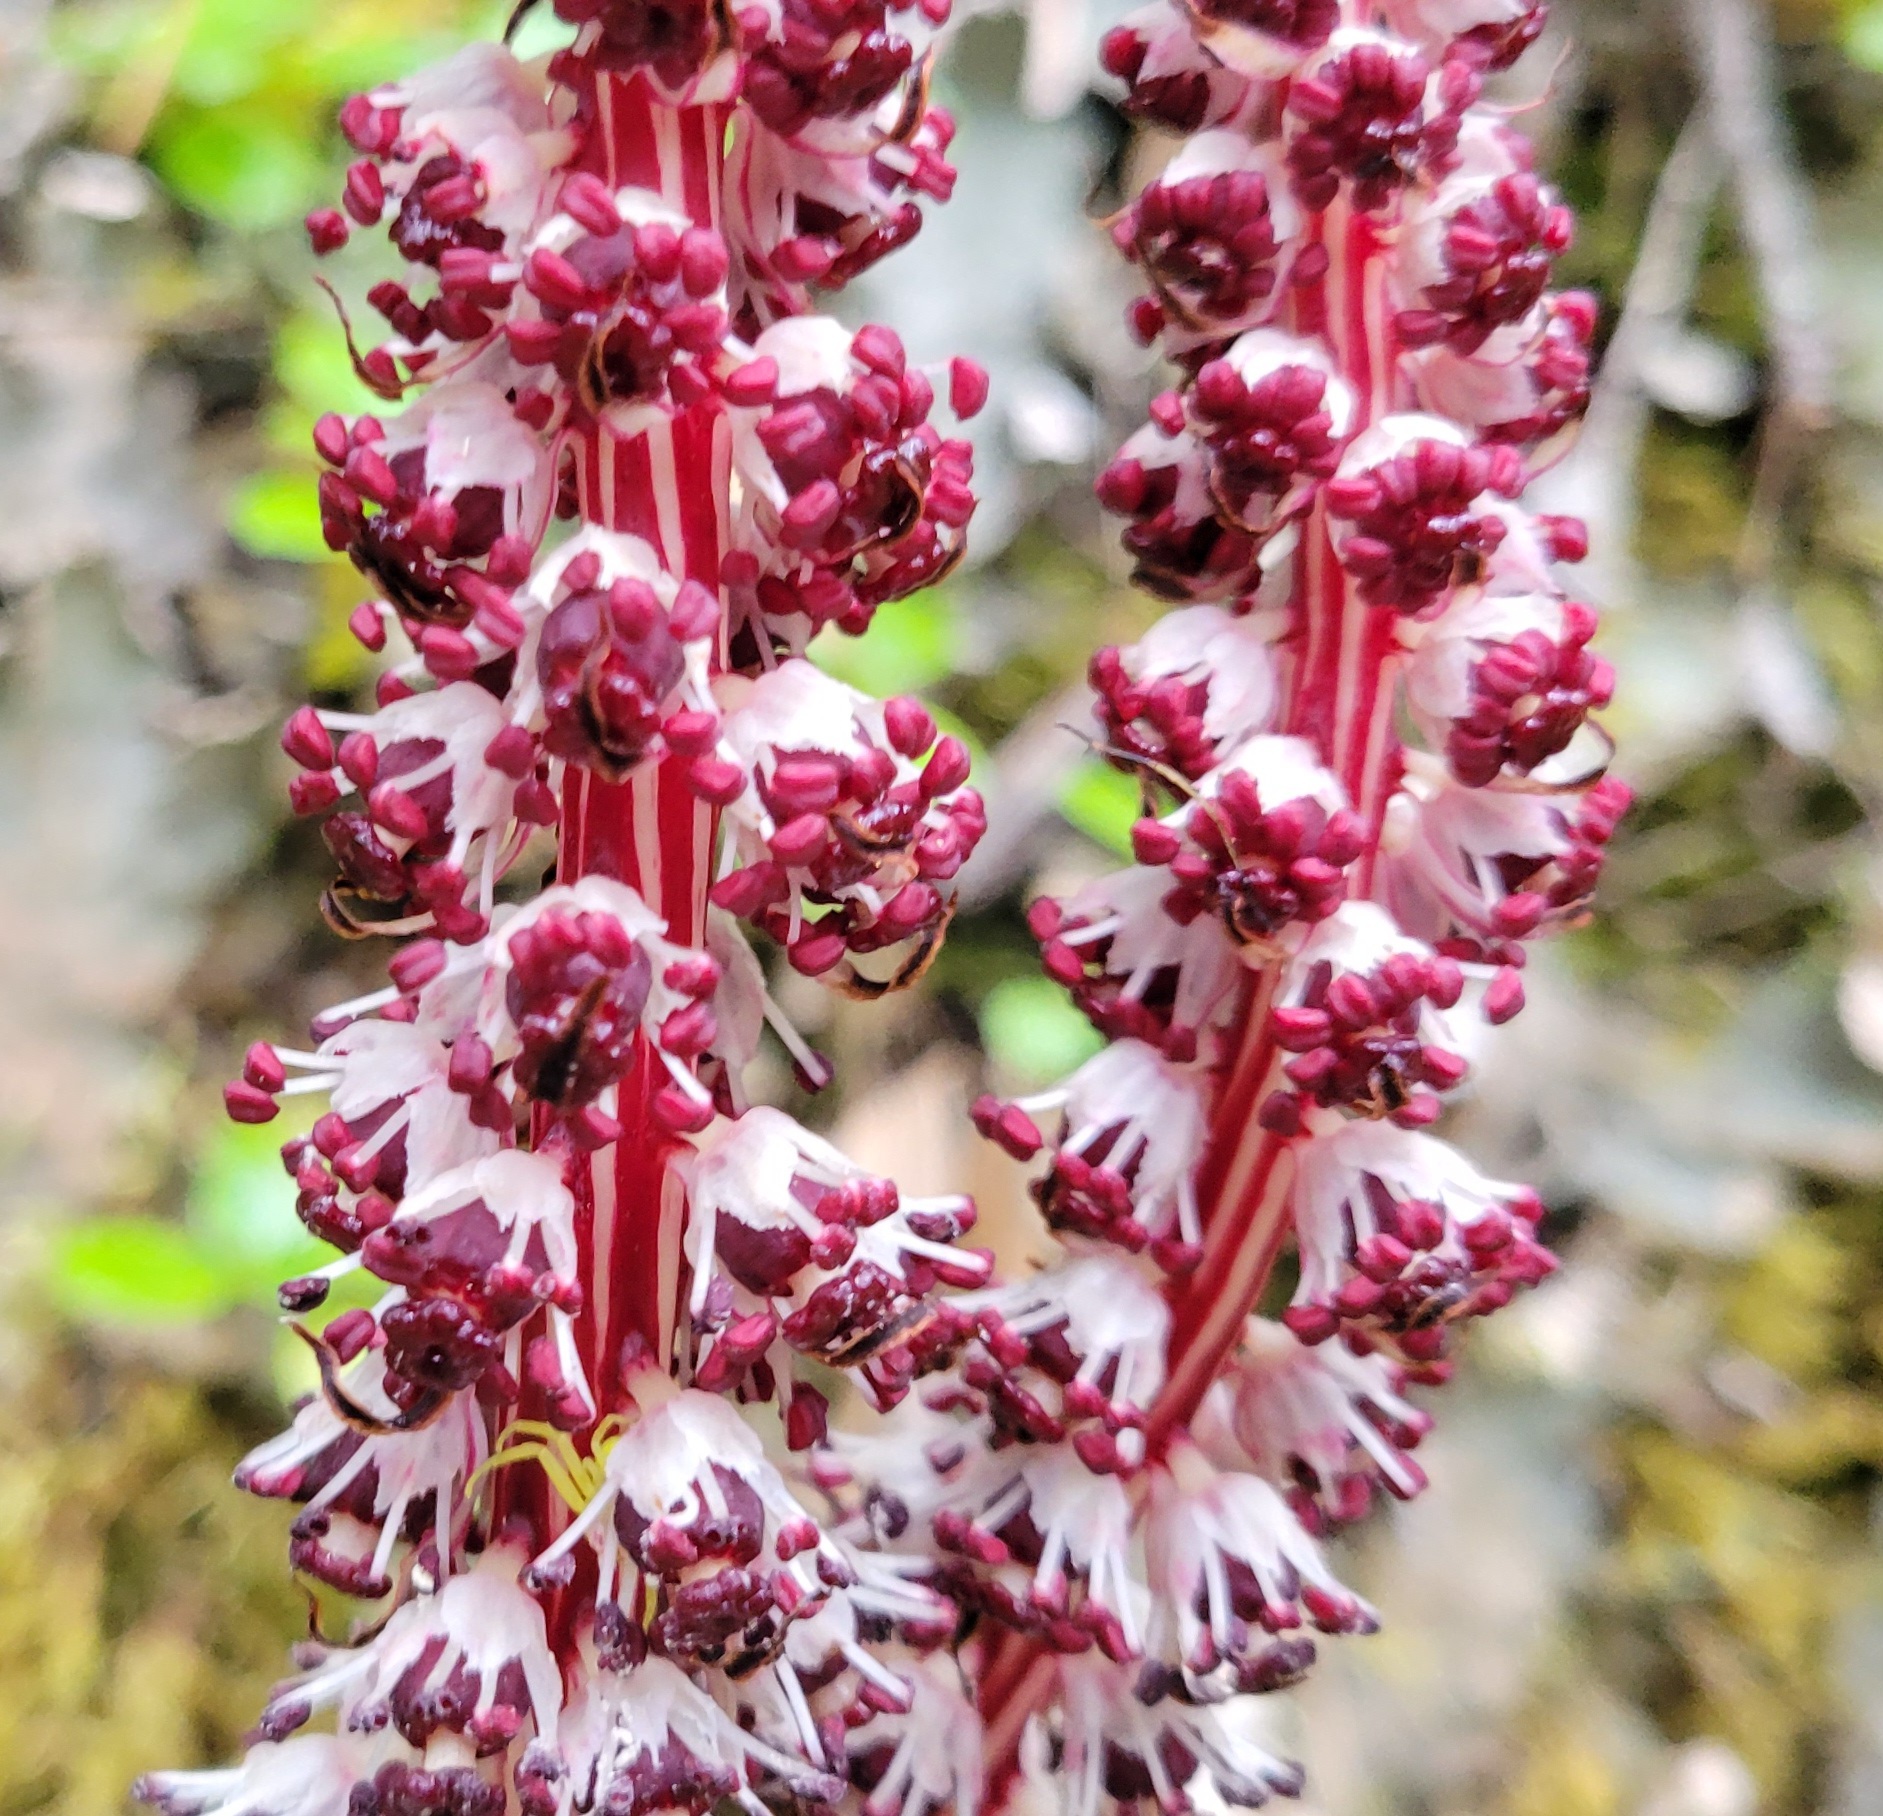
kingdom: Plantae
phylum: Tracheophyta
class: Magnoliopsida
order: Ericales
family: Ericaceae
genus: Allotropa
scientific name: Allotropa virgata
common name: Candy-striped allotropa
